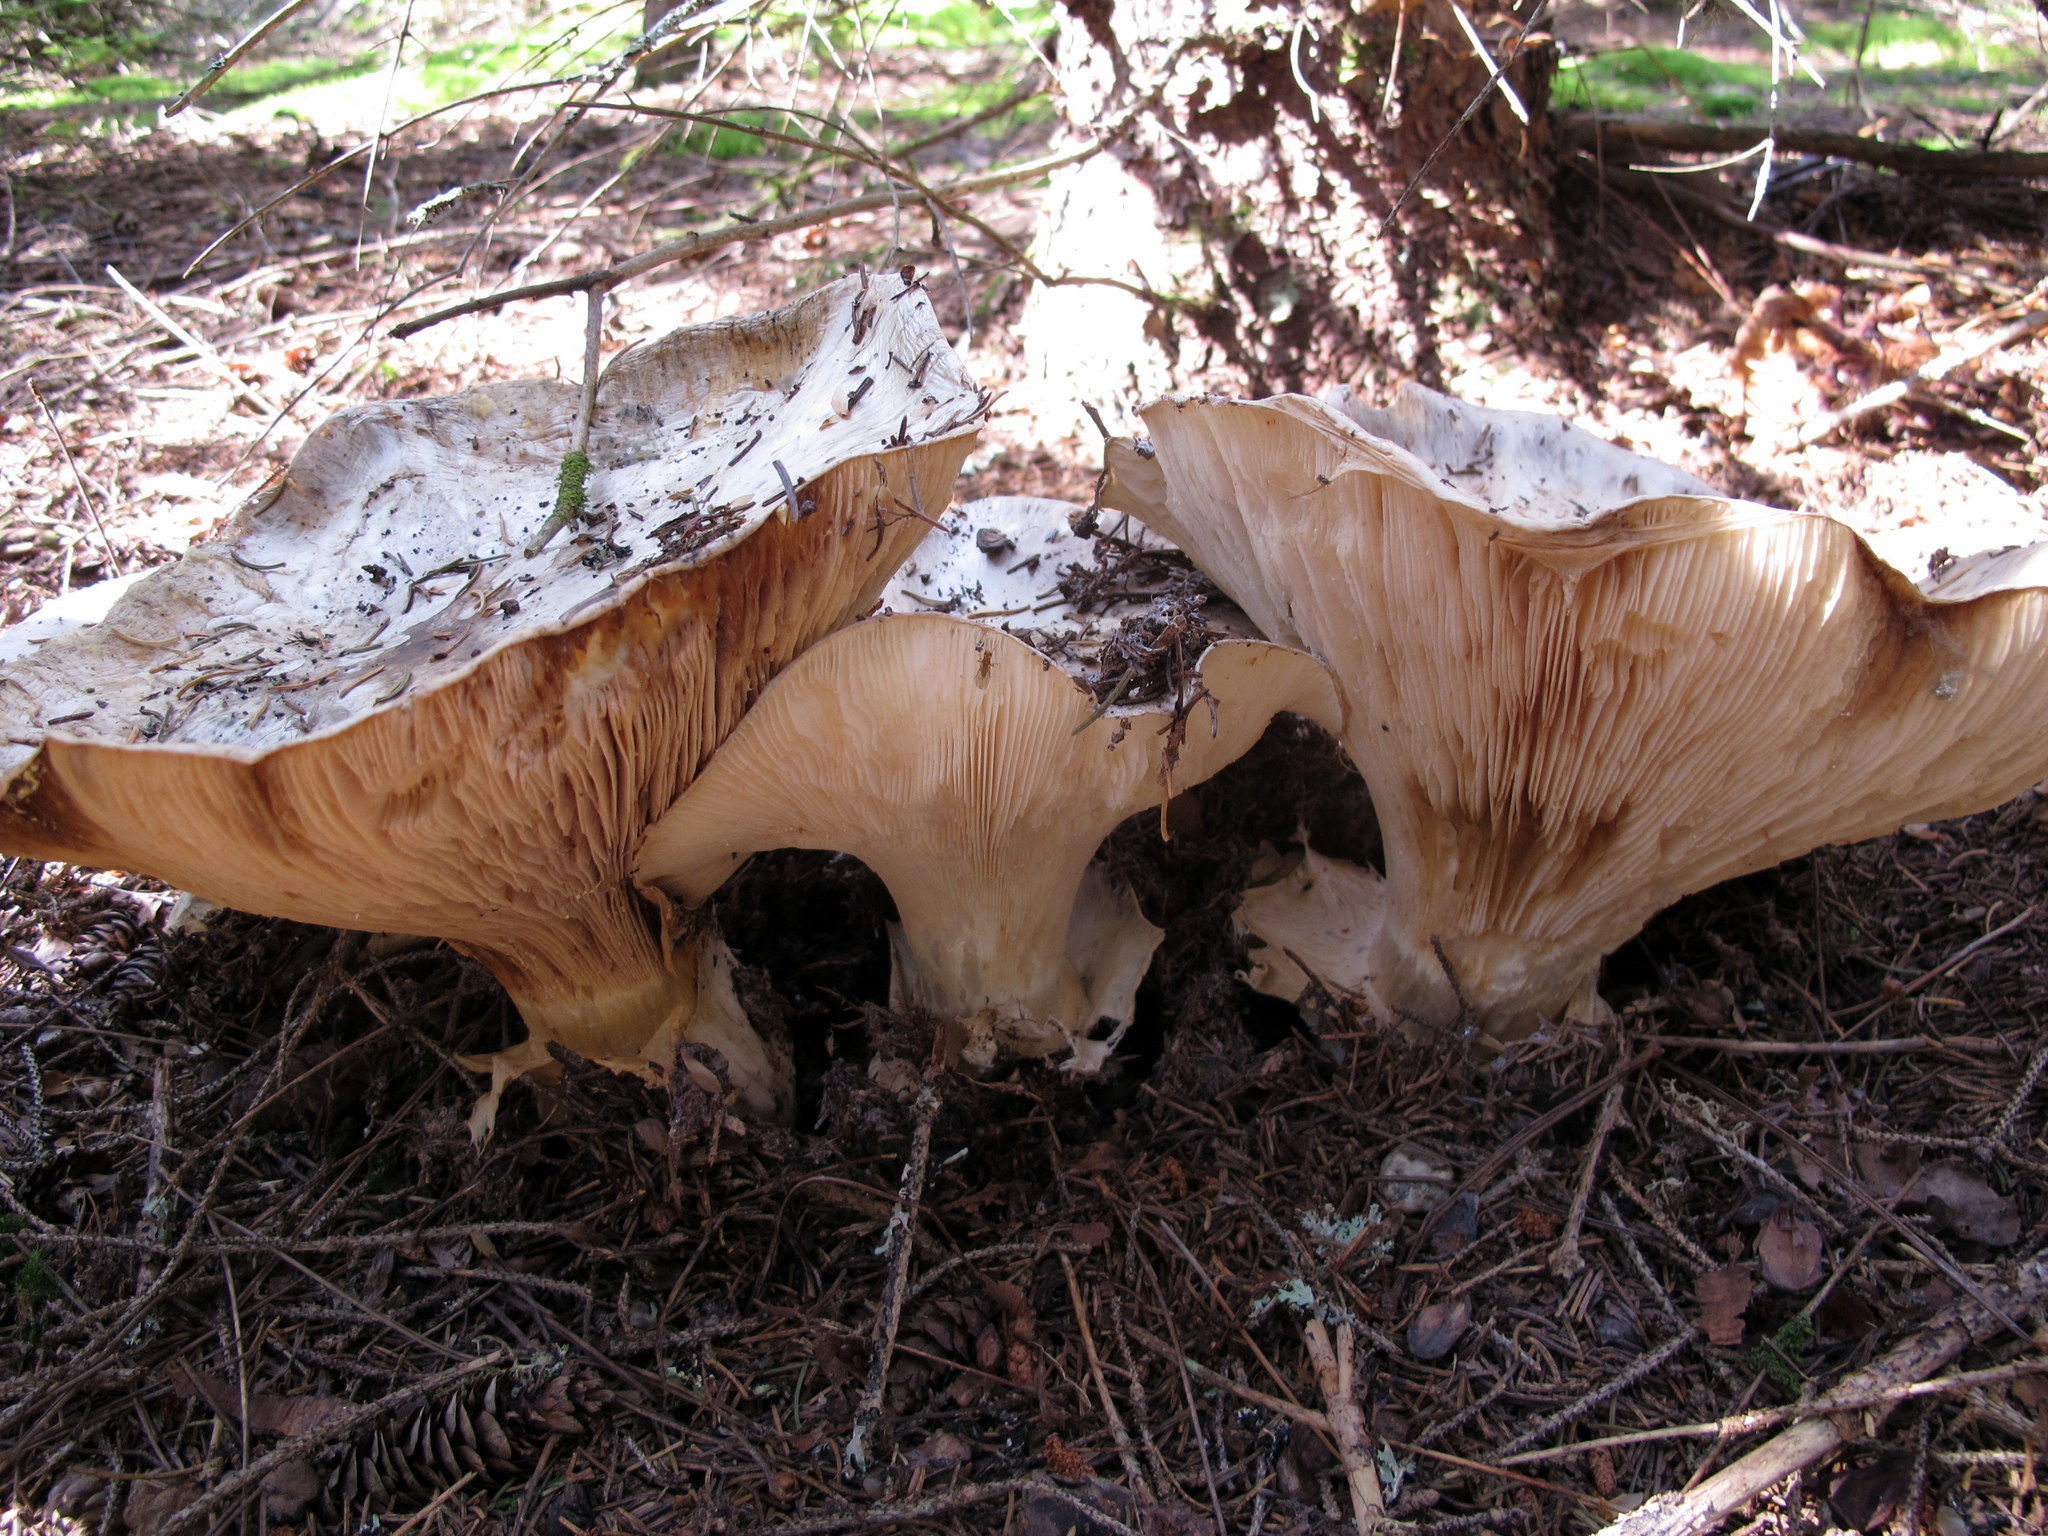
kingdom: Fungi
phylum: Basidiomycota
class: Agaricomycetes
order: Agaricales
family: Biannulariaceae
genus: Catathelasma
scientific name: Catathelasma ventricosum
